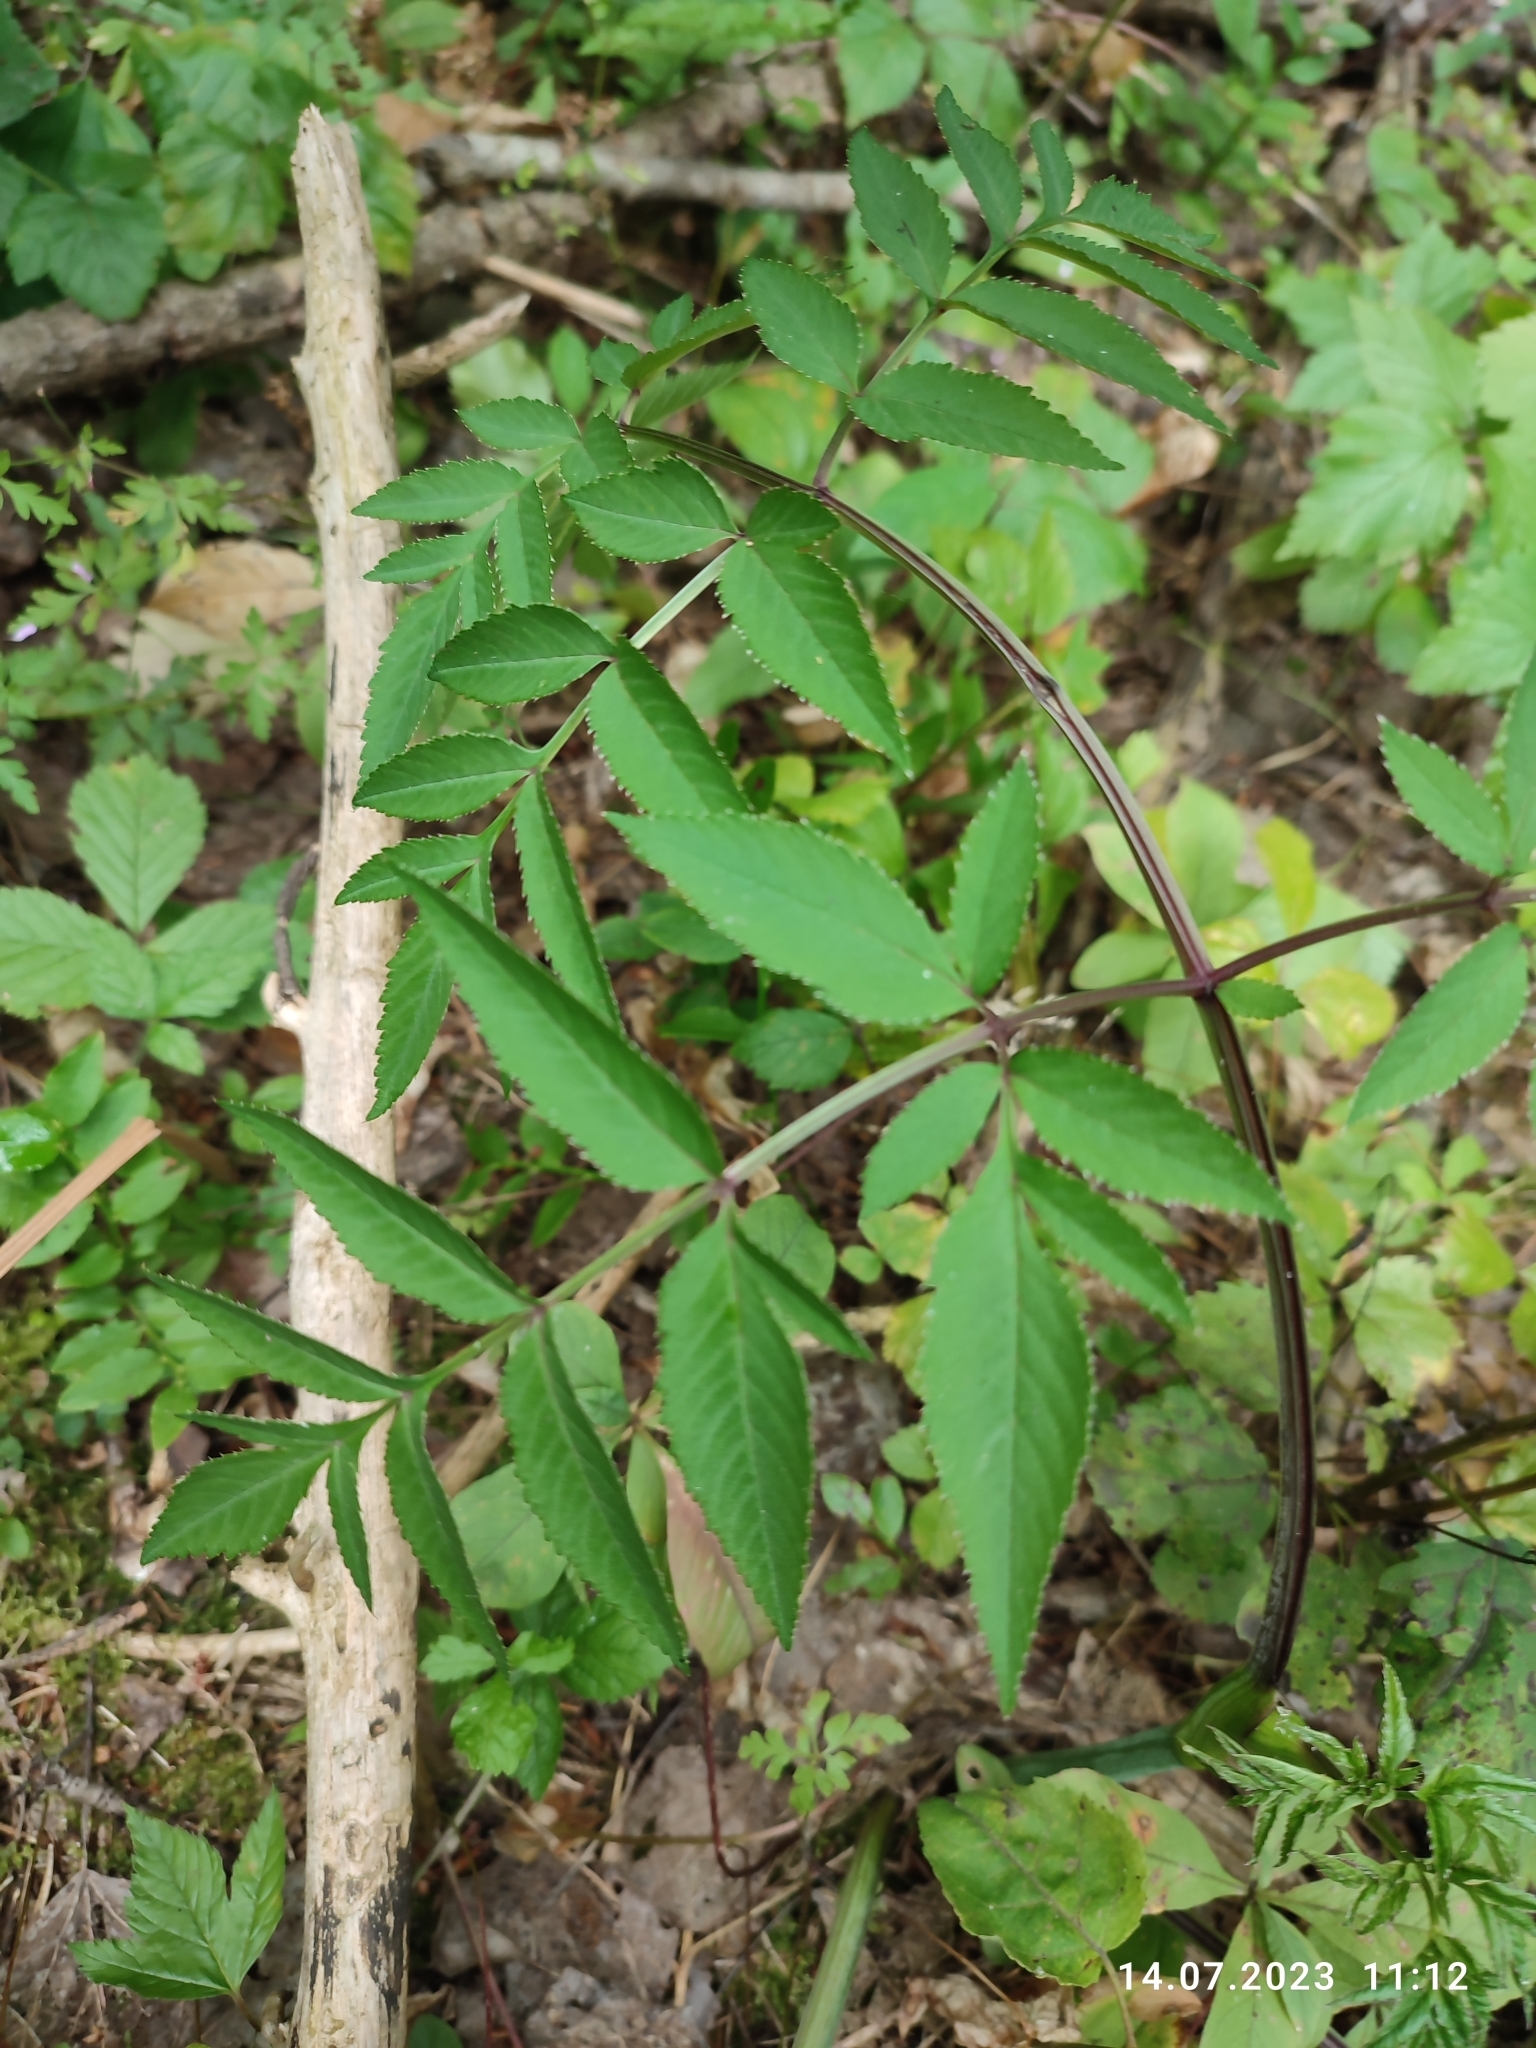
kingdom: Plantae
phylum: Tracheophyta
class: Magnoliopsida
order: Apiales
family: Apiaceae
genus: Angelica
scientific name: Angelica sylvestris
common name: Wild angelica
